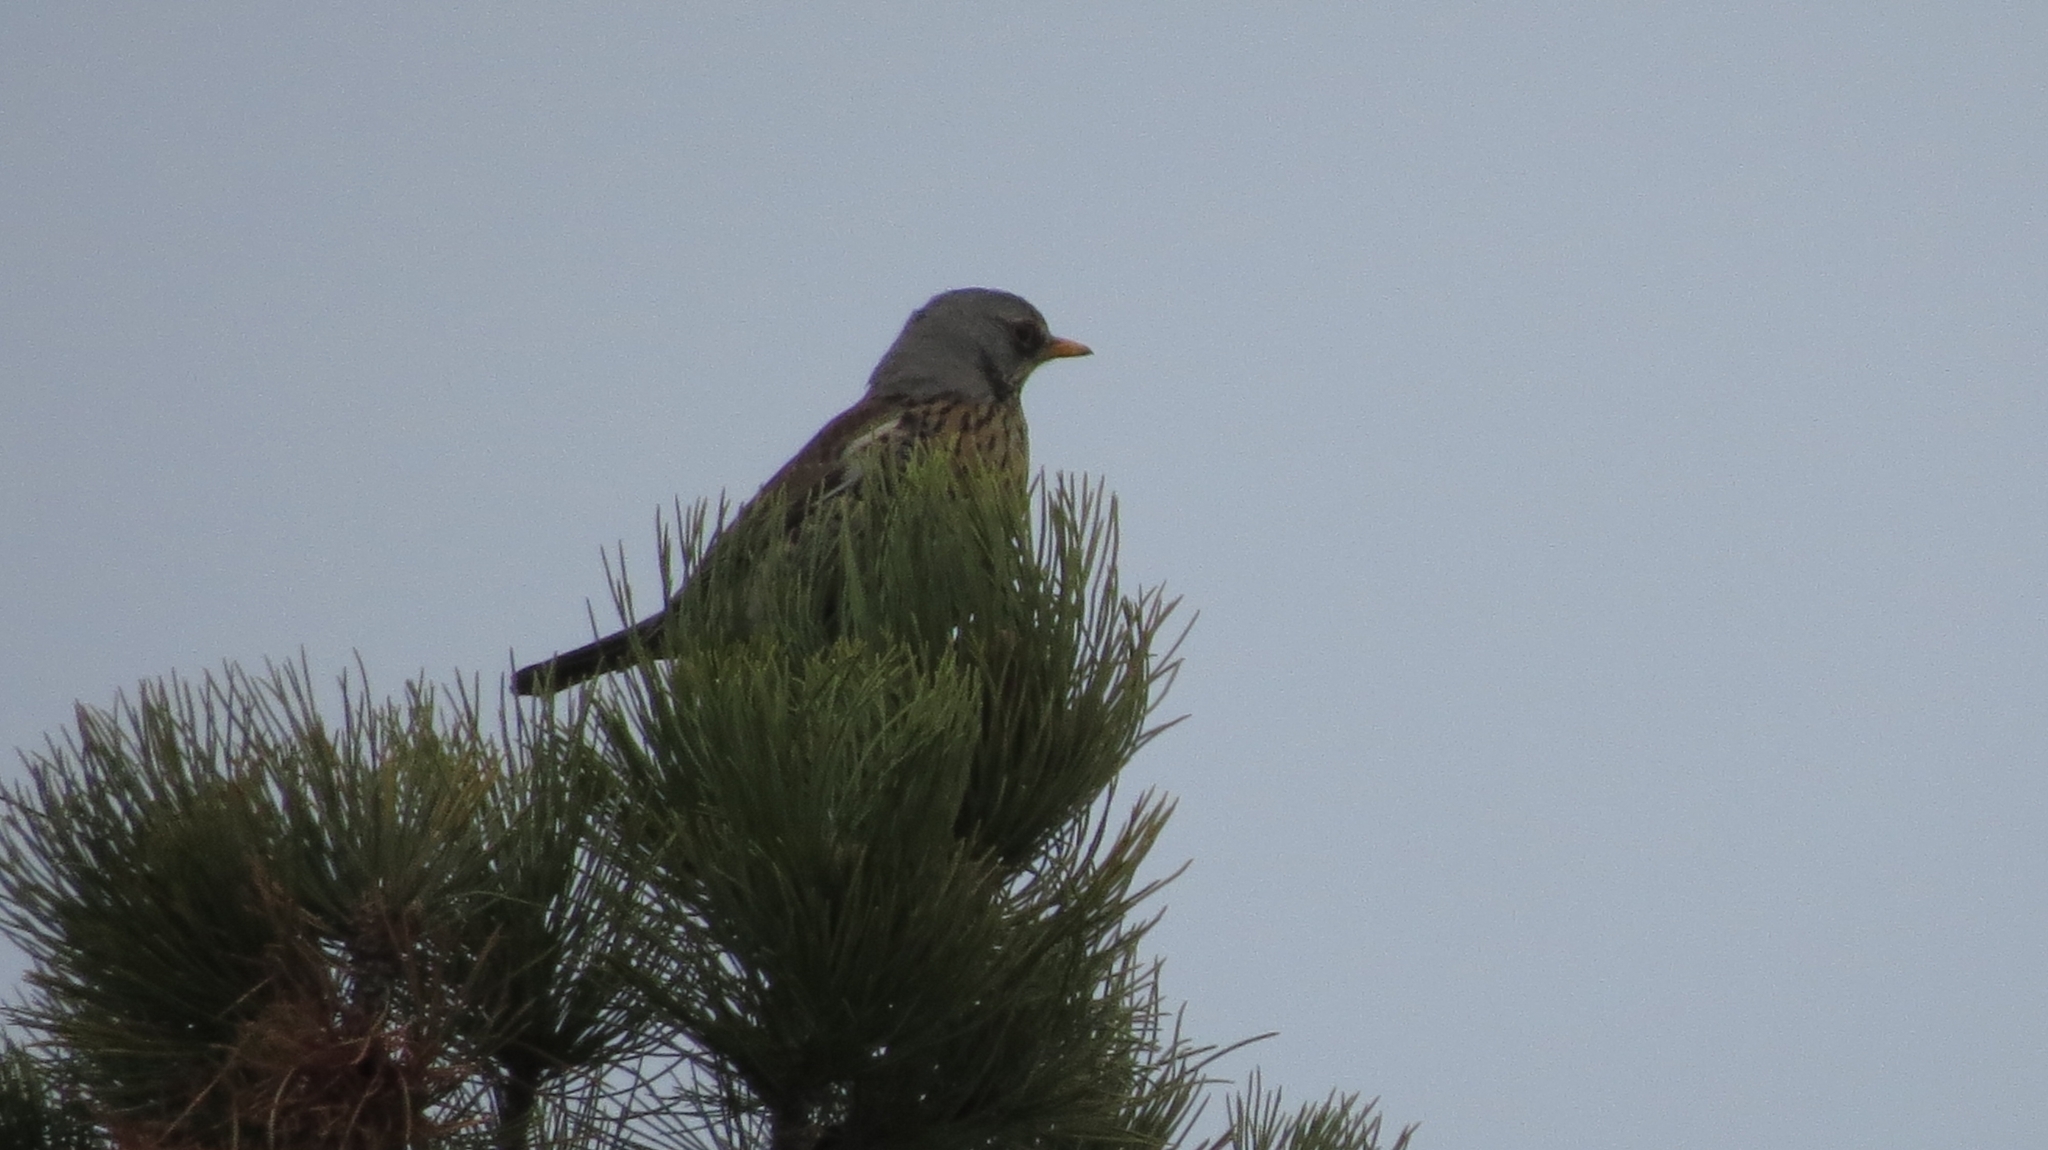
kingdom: Animalia
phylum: Chordata
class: Aves
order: Passeriformes
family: Turdidae
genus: Turdus
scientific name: Turdus pilaris
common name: Fieldfare
